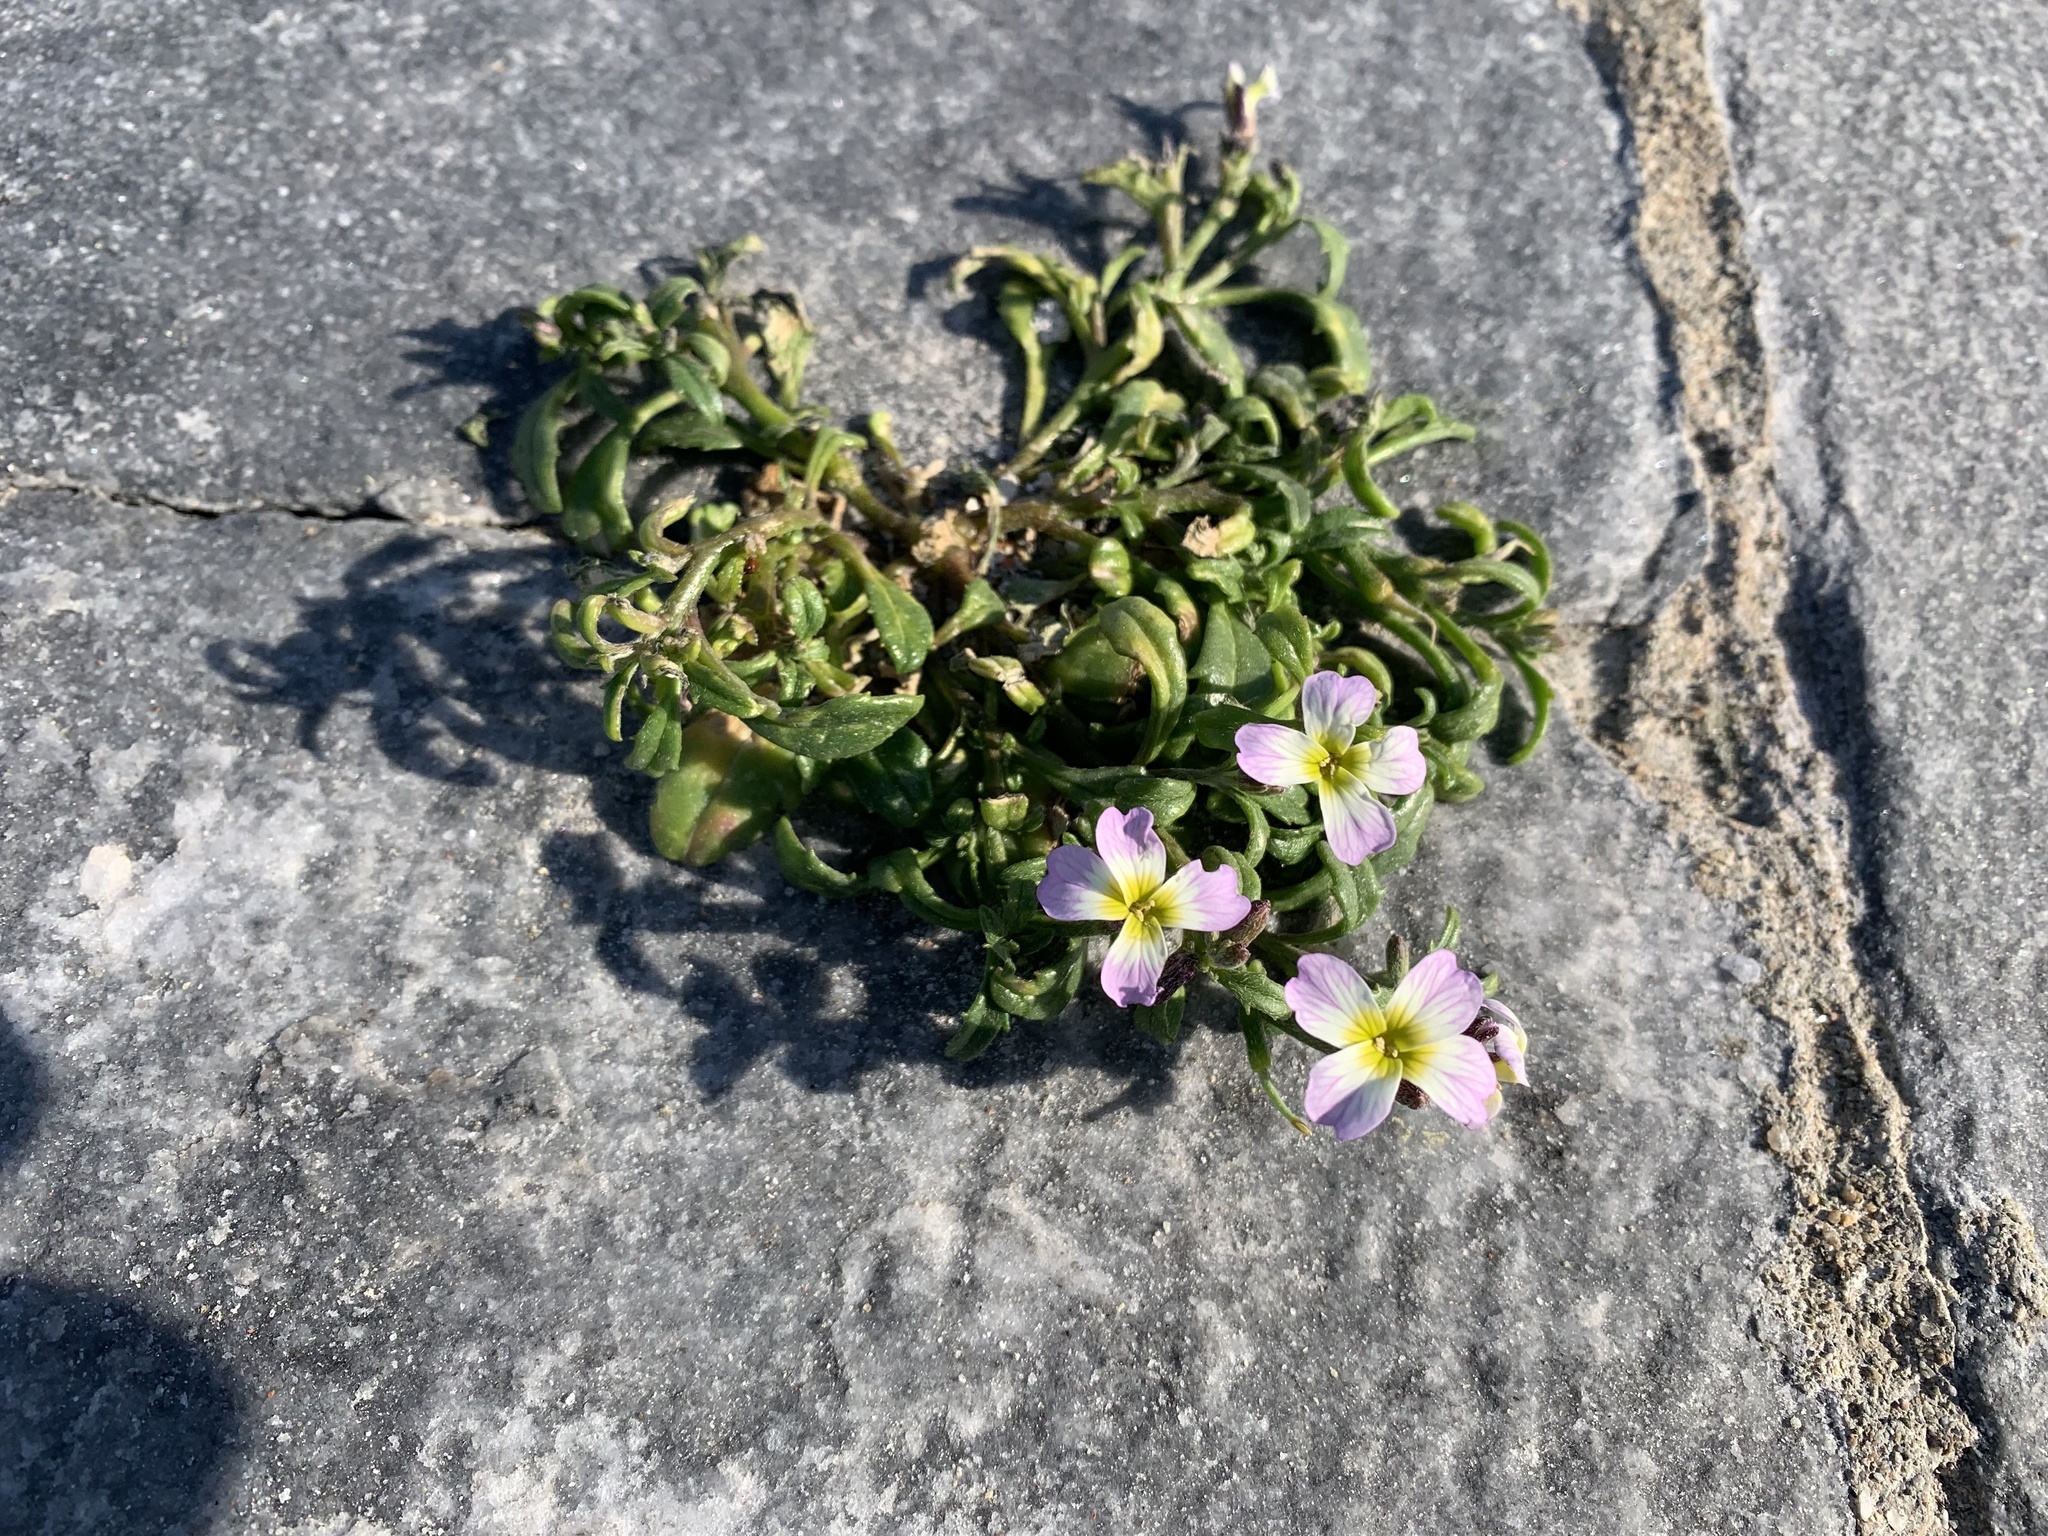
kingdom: Plantae
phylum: Tracheophyta
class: Magnoliopsida
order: Brassicales
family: Brassicaceae
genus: Malcolmia
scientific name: Malcolmia flexuosa
